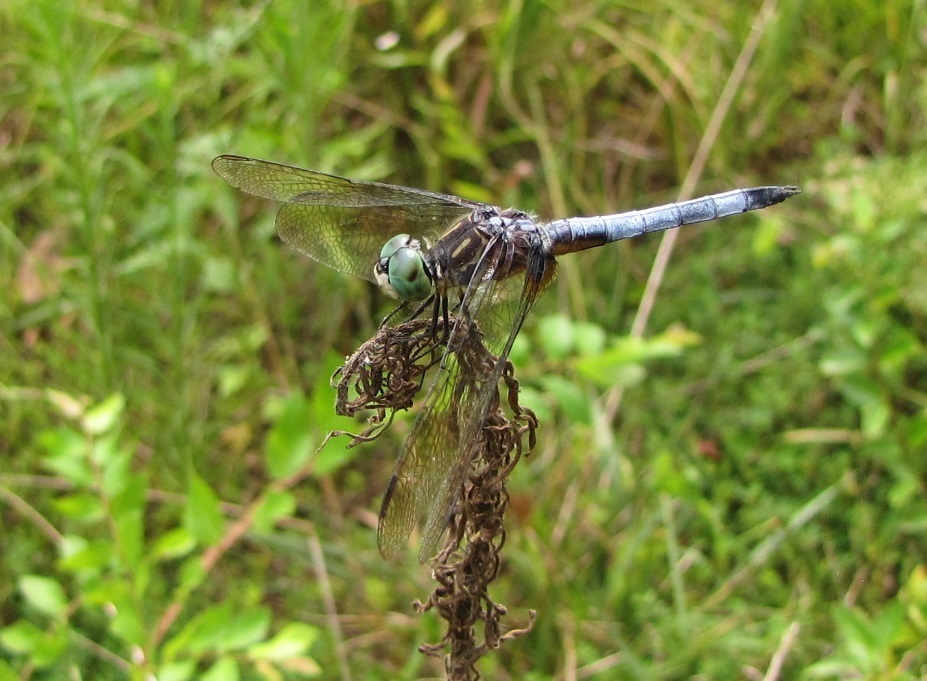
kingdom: Animalia
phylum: Arthropoda
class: Insecta
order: Odonata
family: Libellulidae
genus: Pachydiplax
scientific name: Pachydiplax longipennis
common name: Blue dasher
